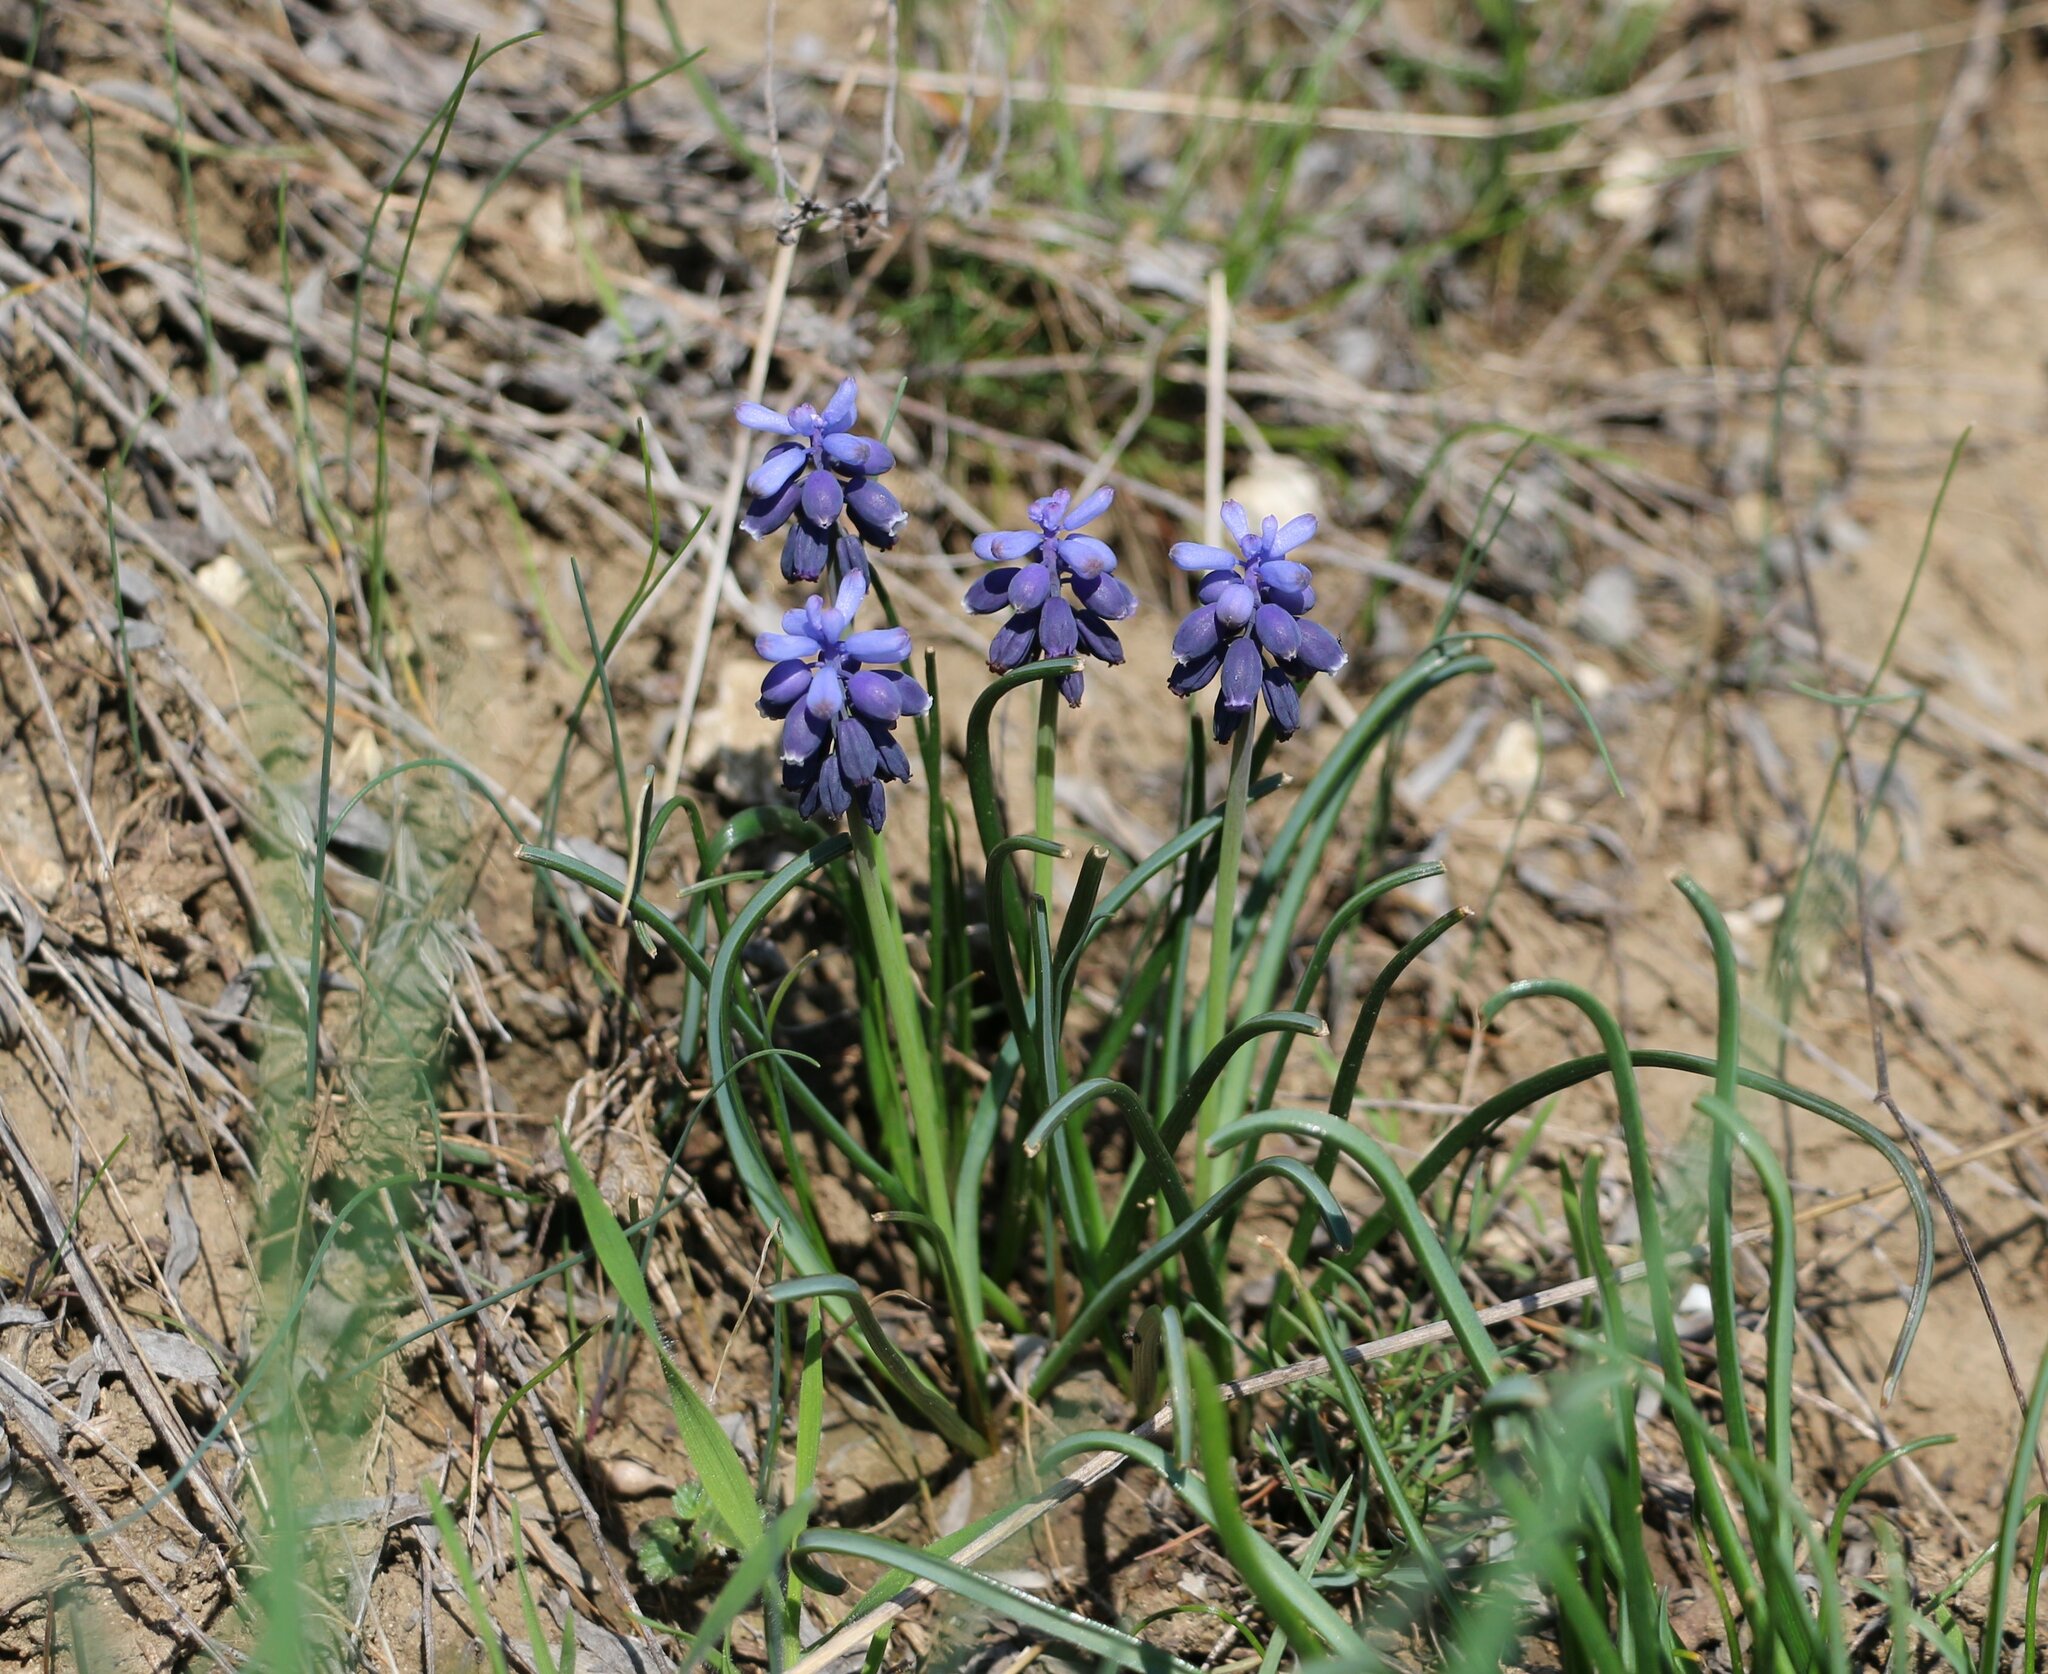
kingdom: Plantae
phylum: Tracheophyta
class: Liliopsida
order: Asparagales
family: Asparagaceae
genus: Muscari
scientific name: Muscari neglectum
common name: Grape-hyacinth
